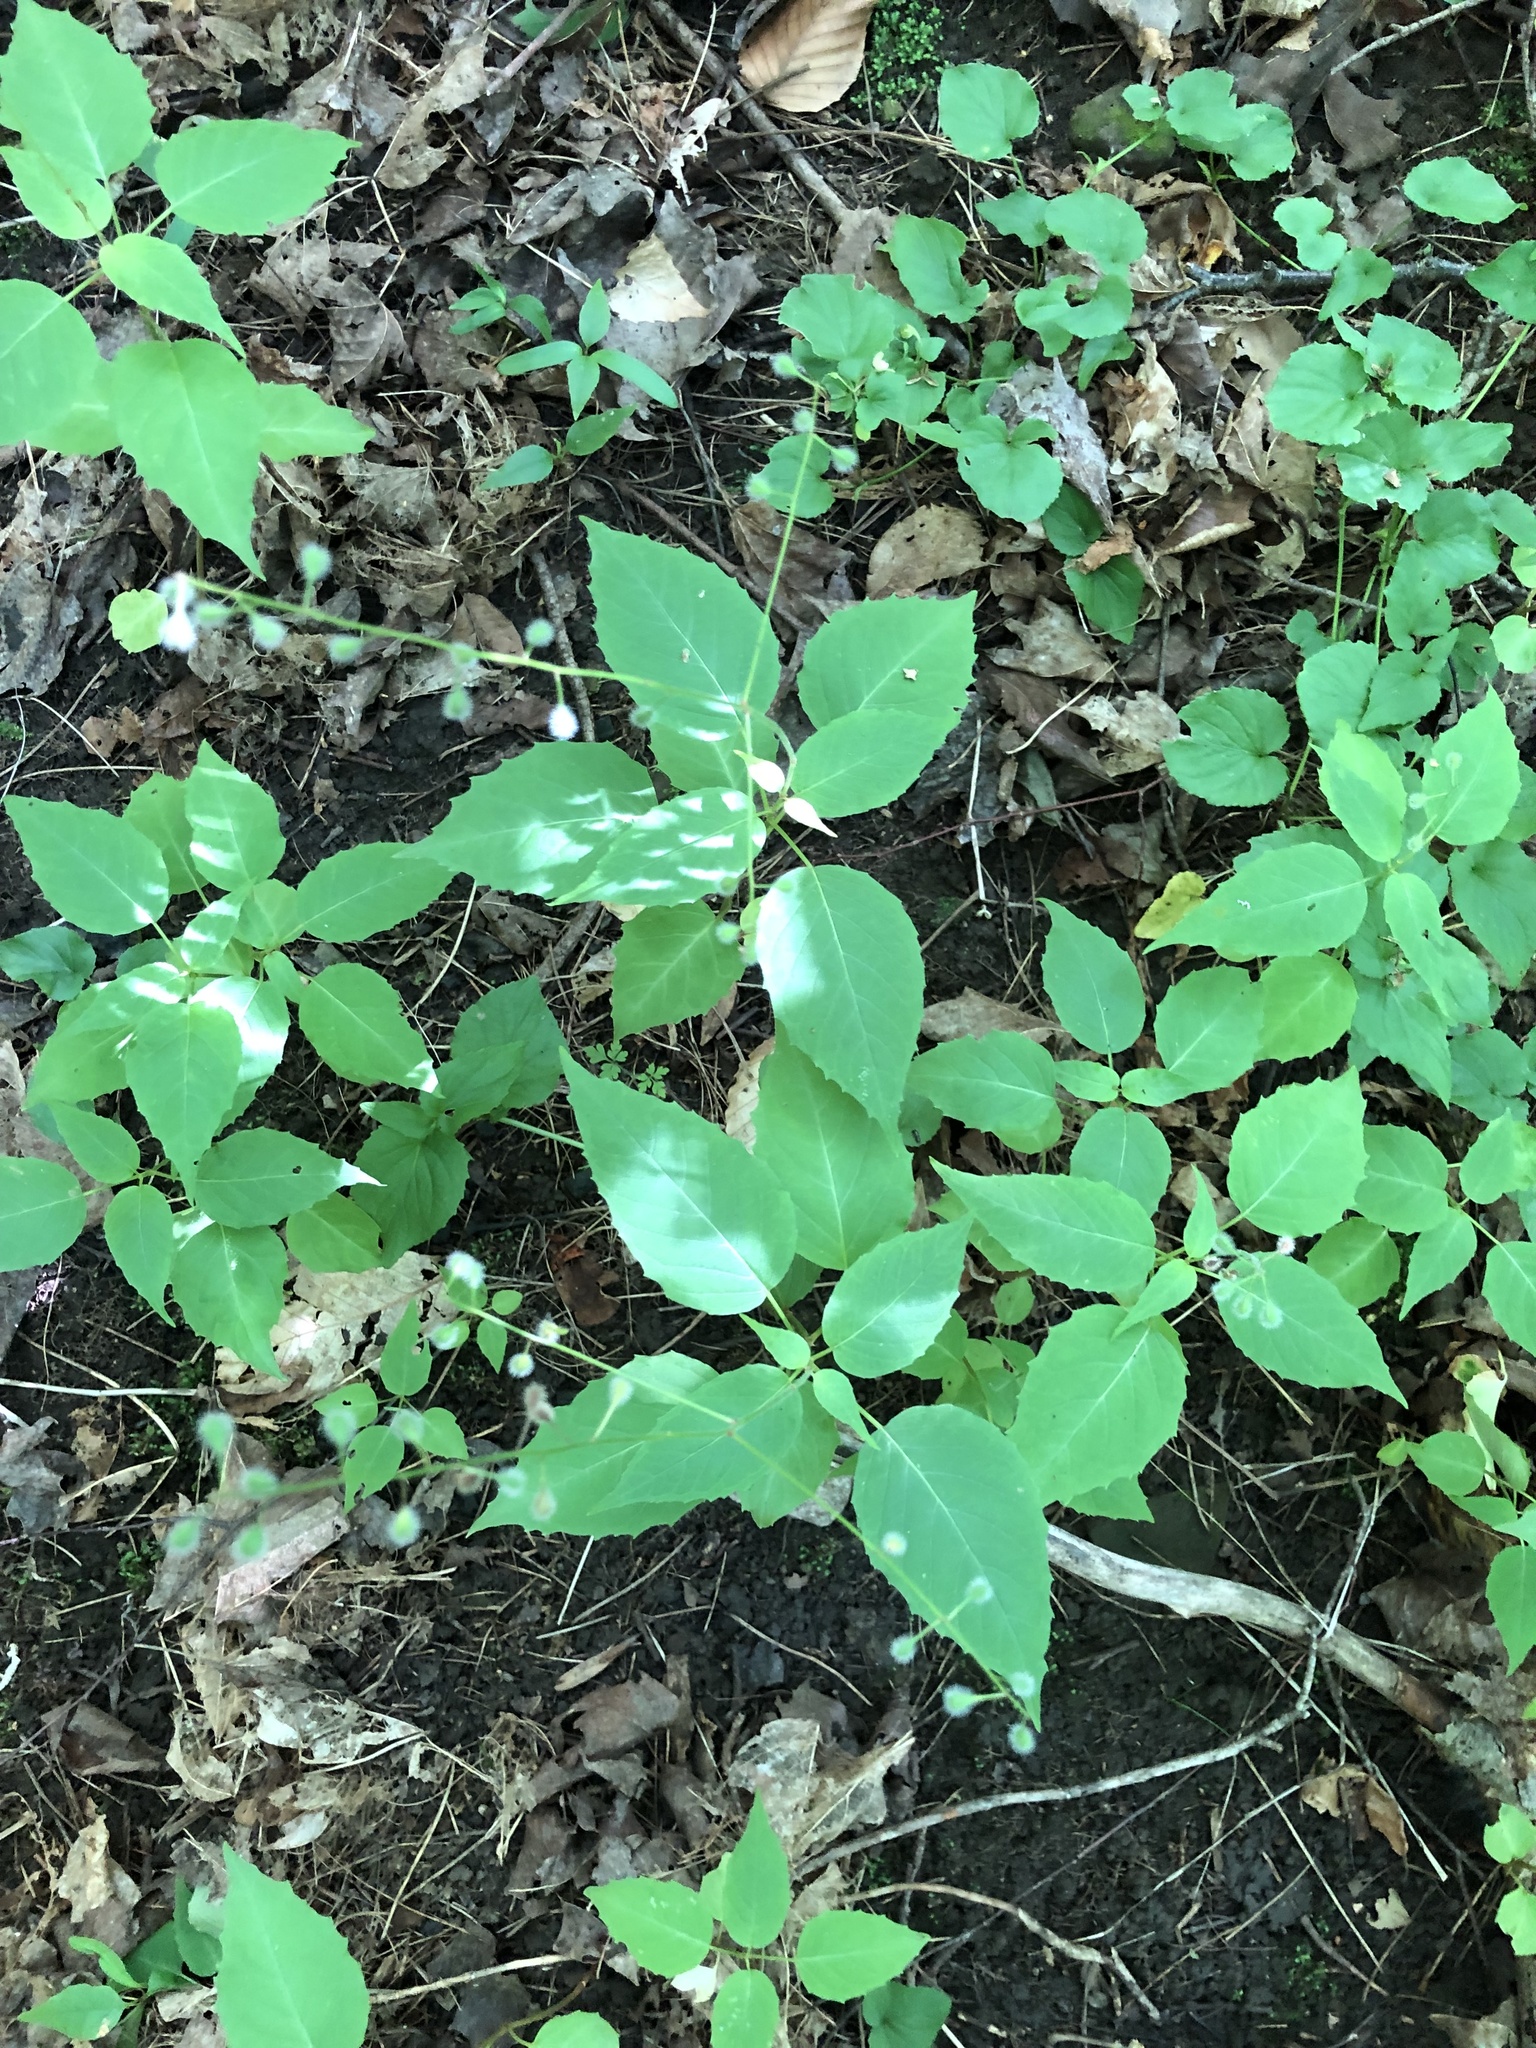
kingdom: Plantae
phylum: Tracheophyta
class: Magnoliopsida
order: Myrtales
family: Onagraceae
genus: Circaea
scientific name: Circaea canadensis
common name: Broad-leaved enchanter's nightshade
